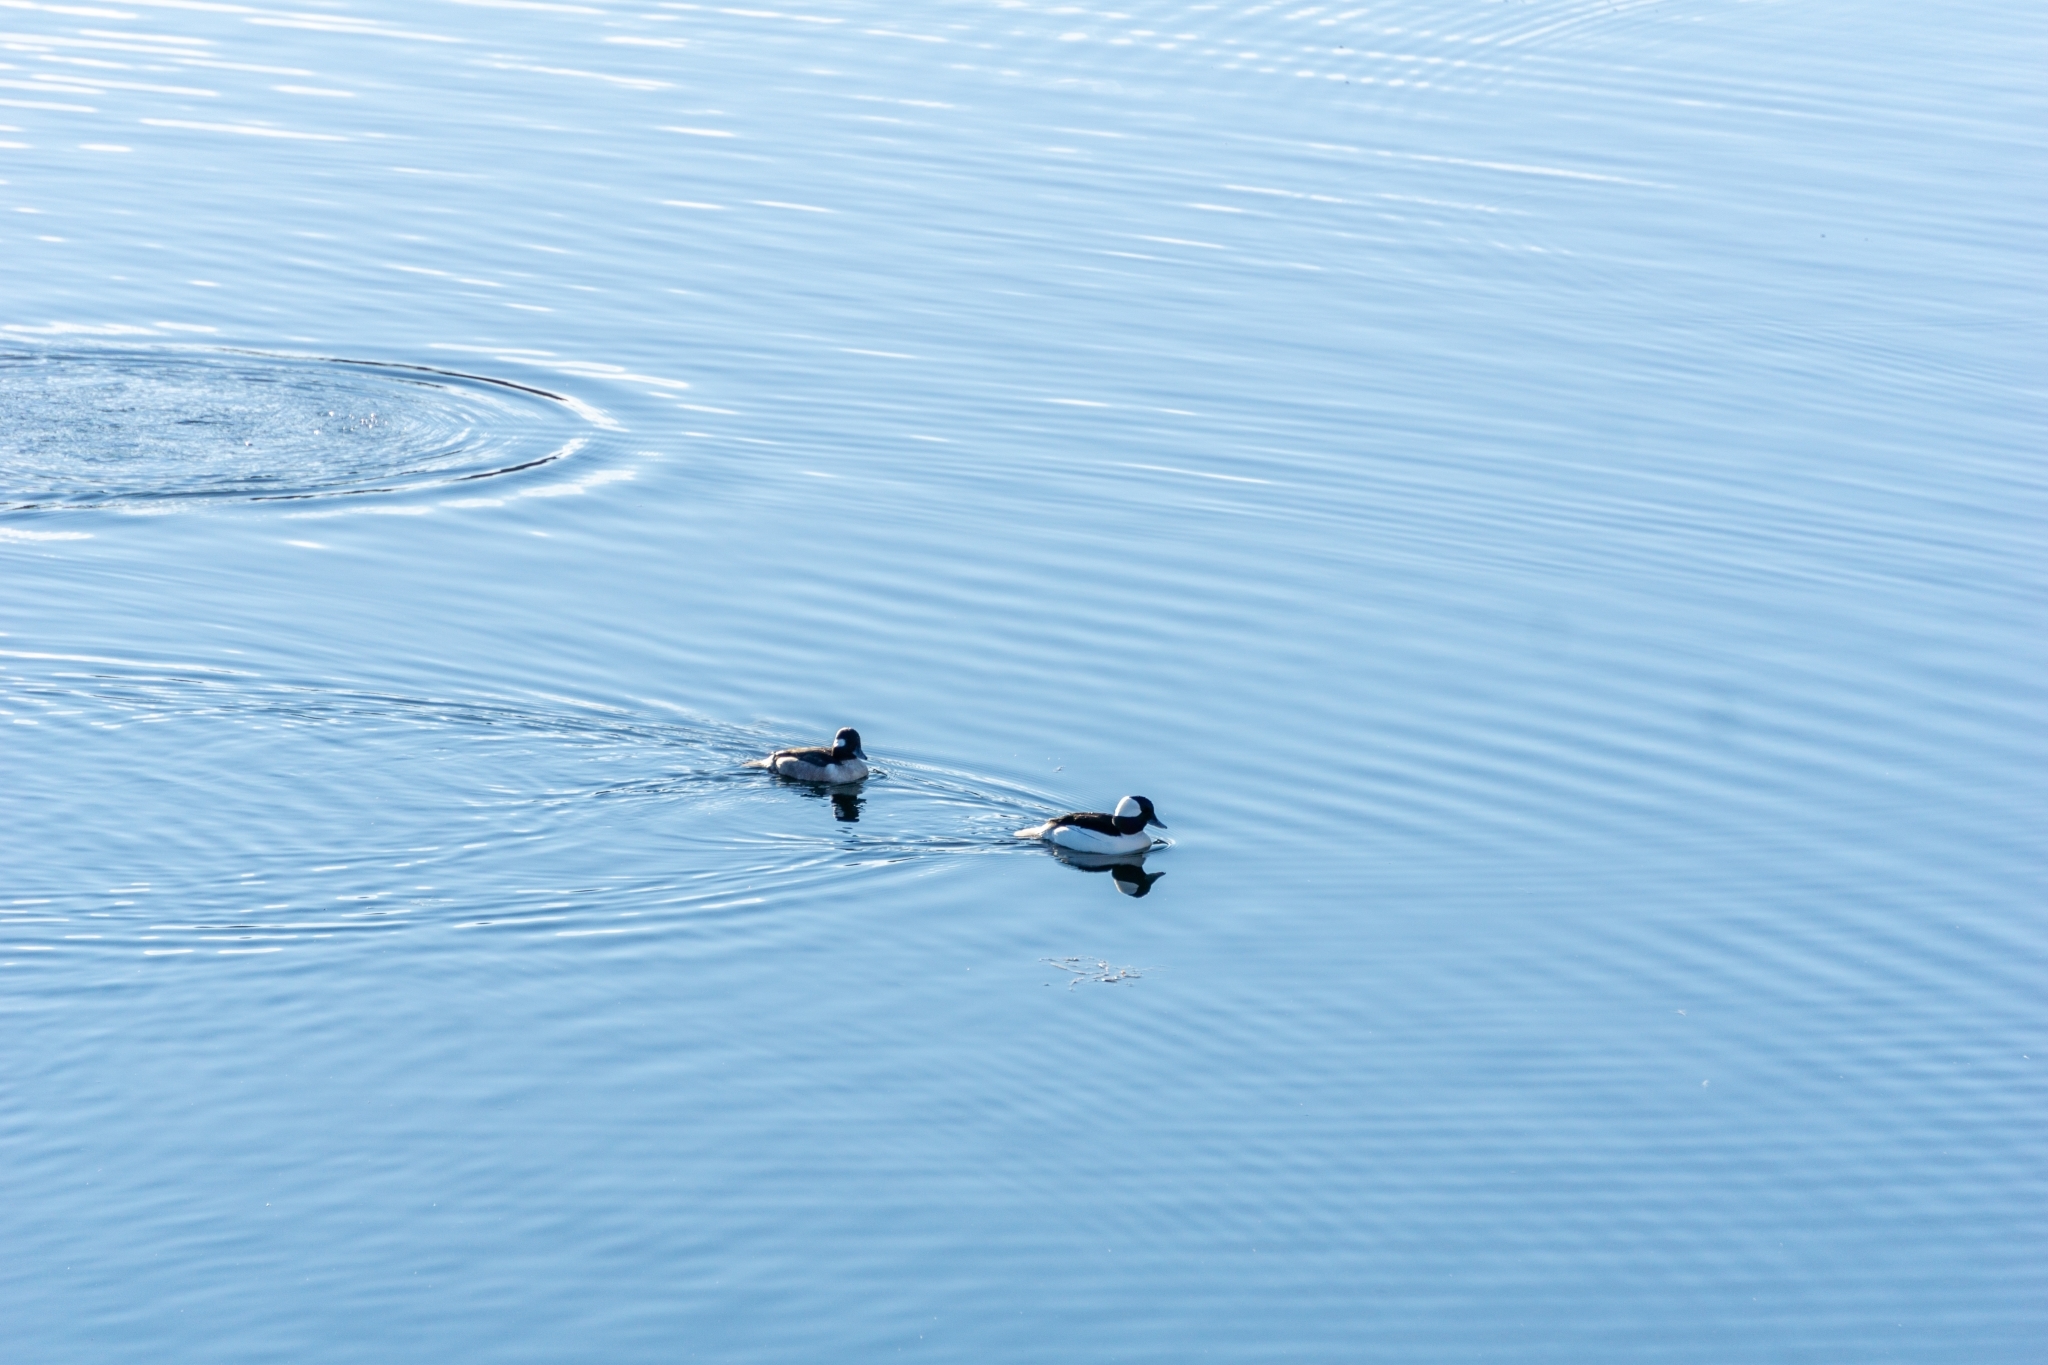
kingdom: Animalia
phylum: Chordata
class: Aves
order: Anseriformes
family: Anatidae
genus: Bucephala
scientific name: Bucephala albeola
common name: Bufflehead
